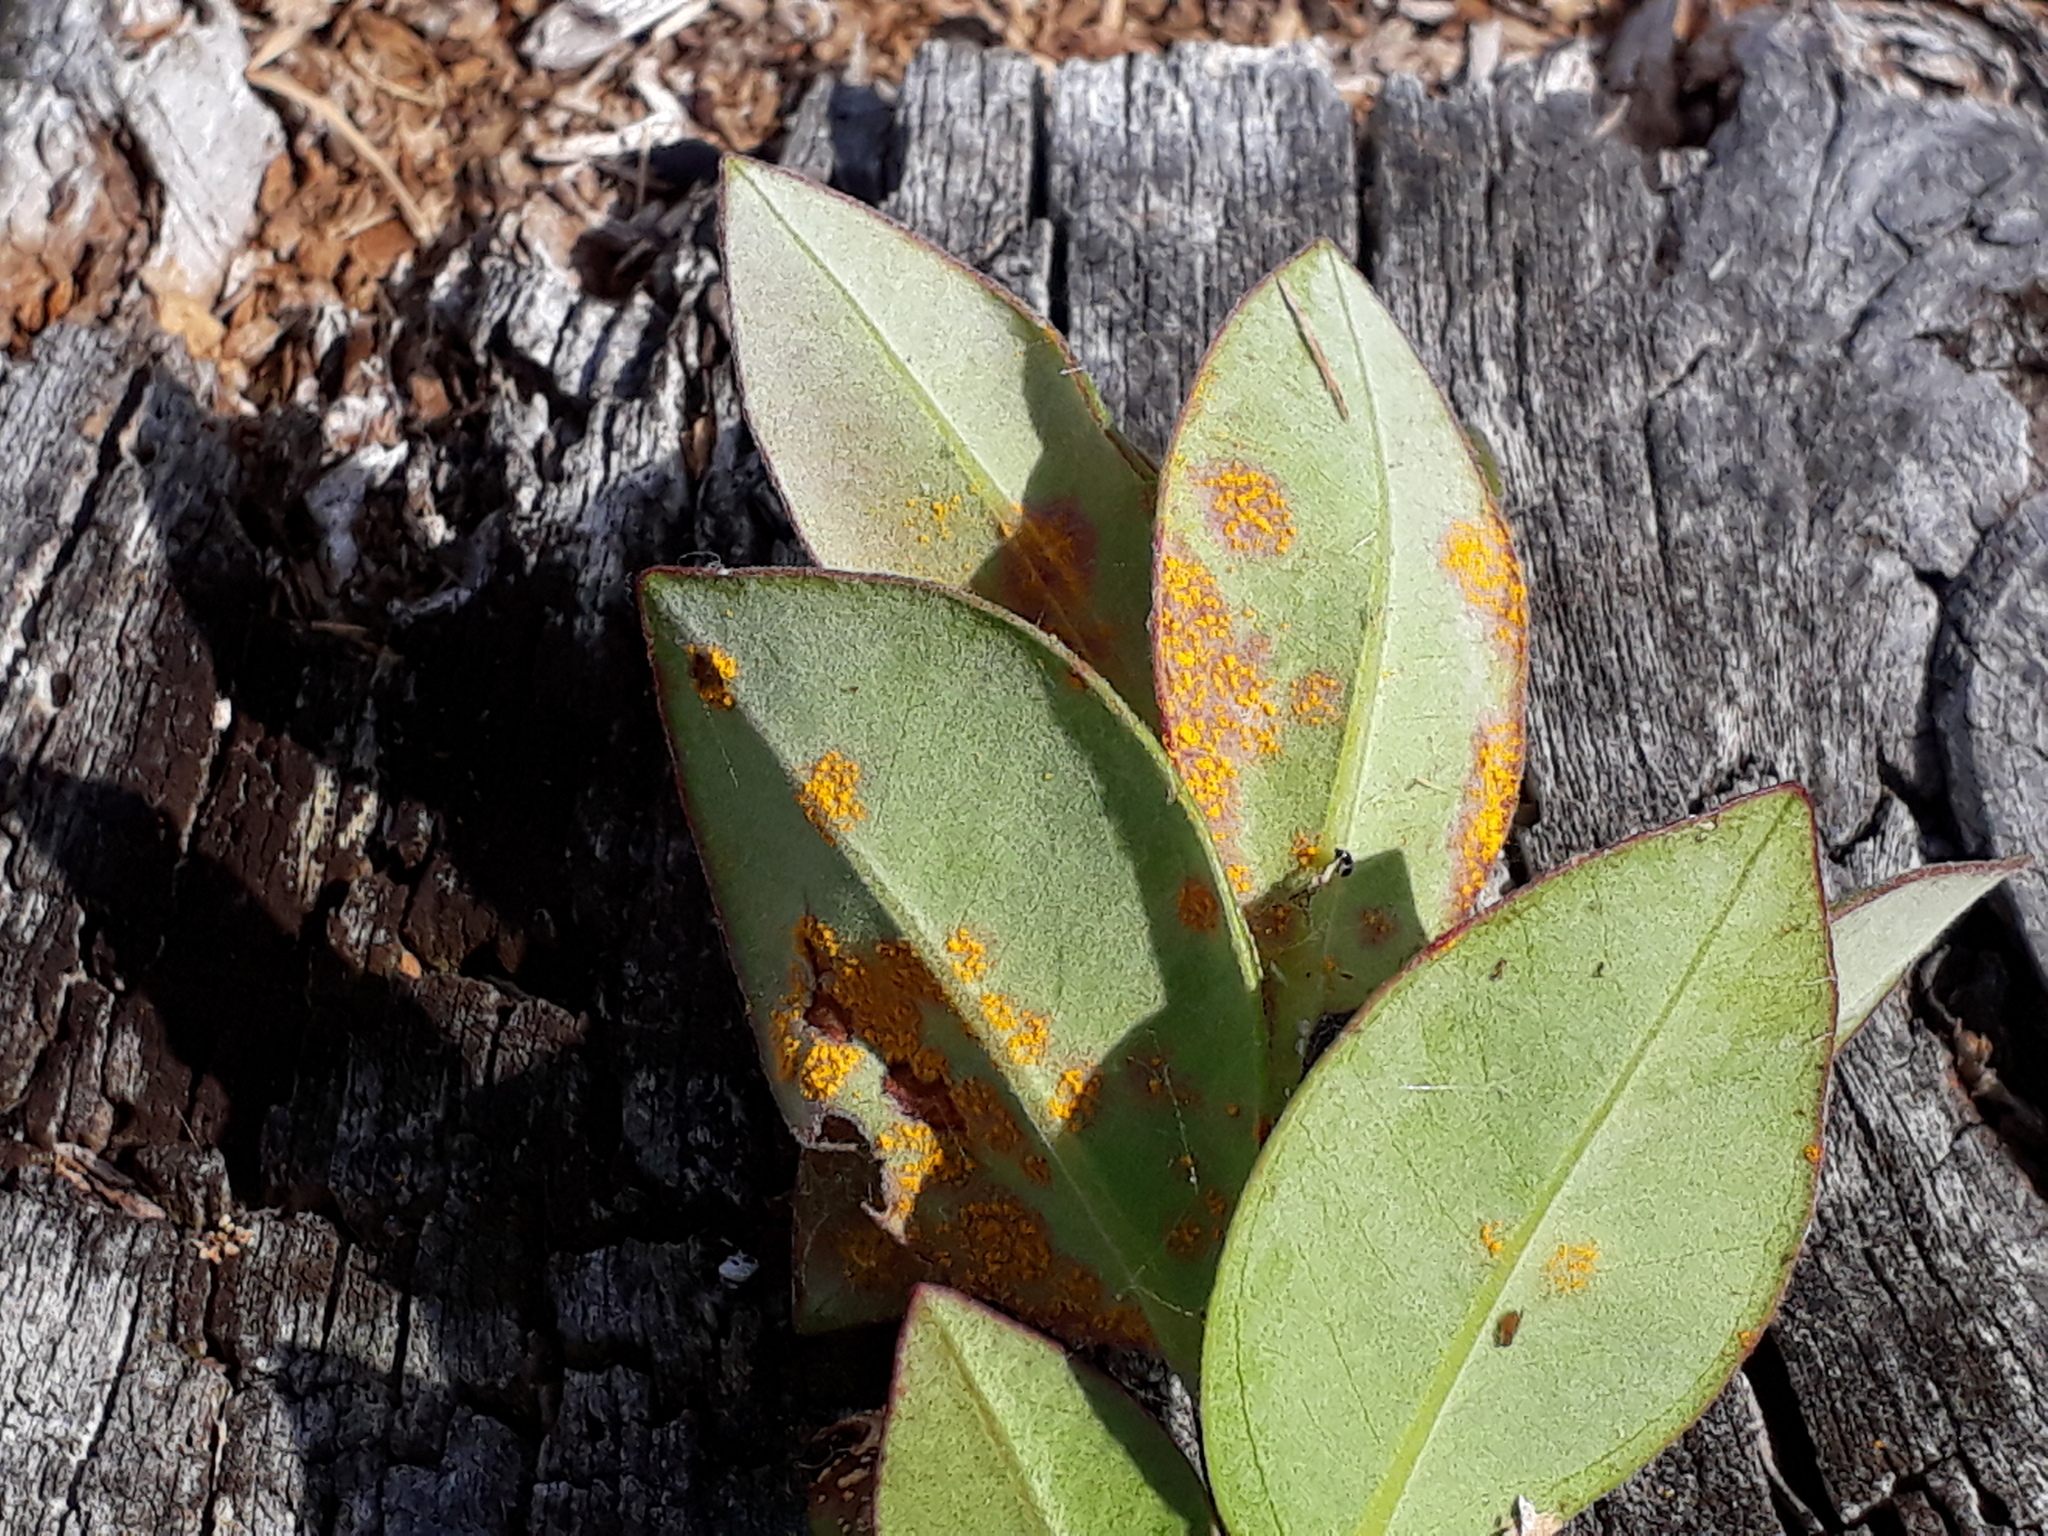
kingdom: Fungi
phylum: Basidiomycota
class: Pucciniomycetes
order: Pucciniales
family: Sphaerophragmiaceae
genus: Austropuccinia
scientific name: Austropuccinia psidii
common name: Myrtle rust
